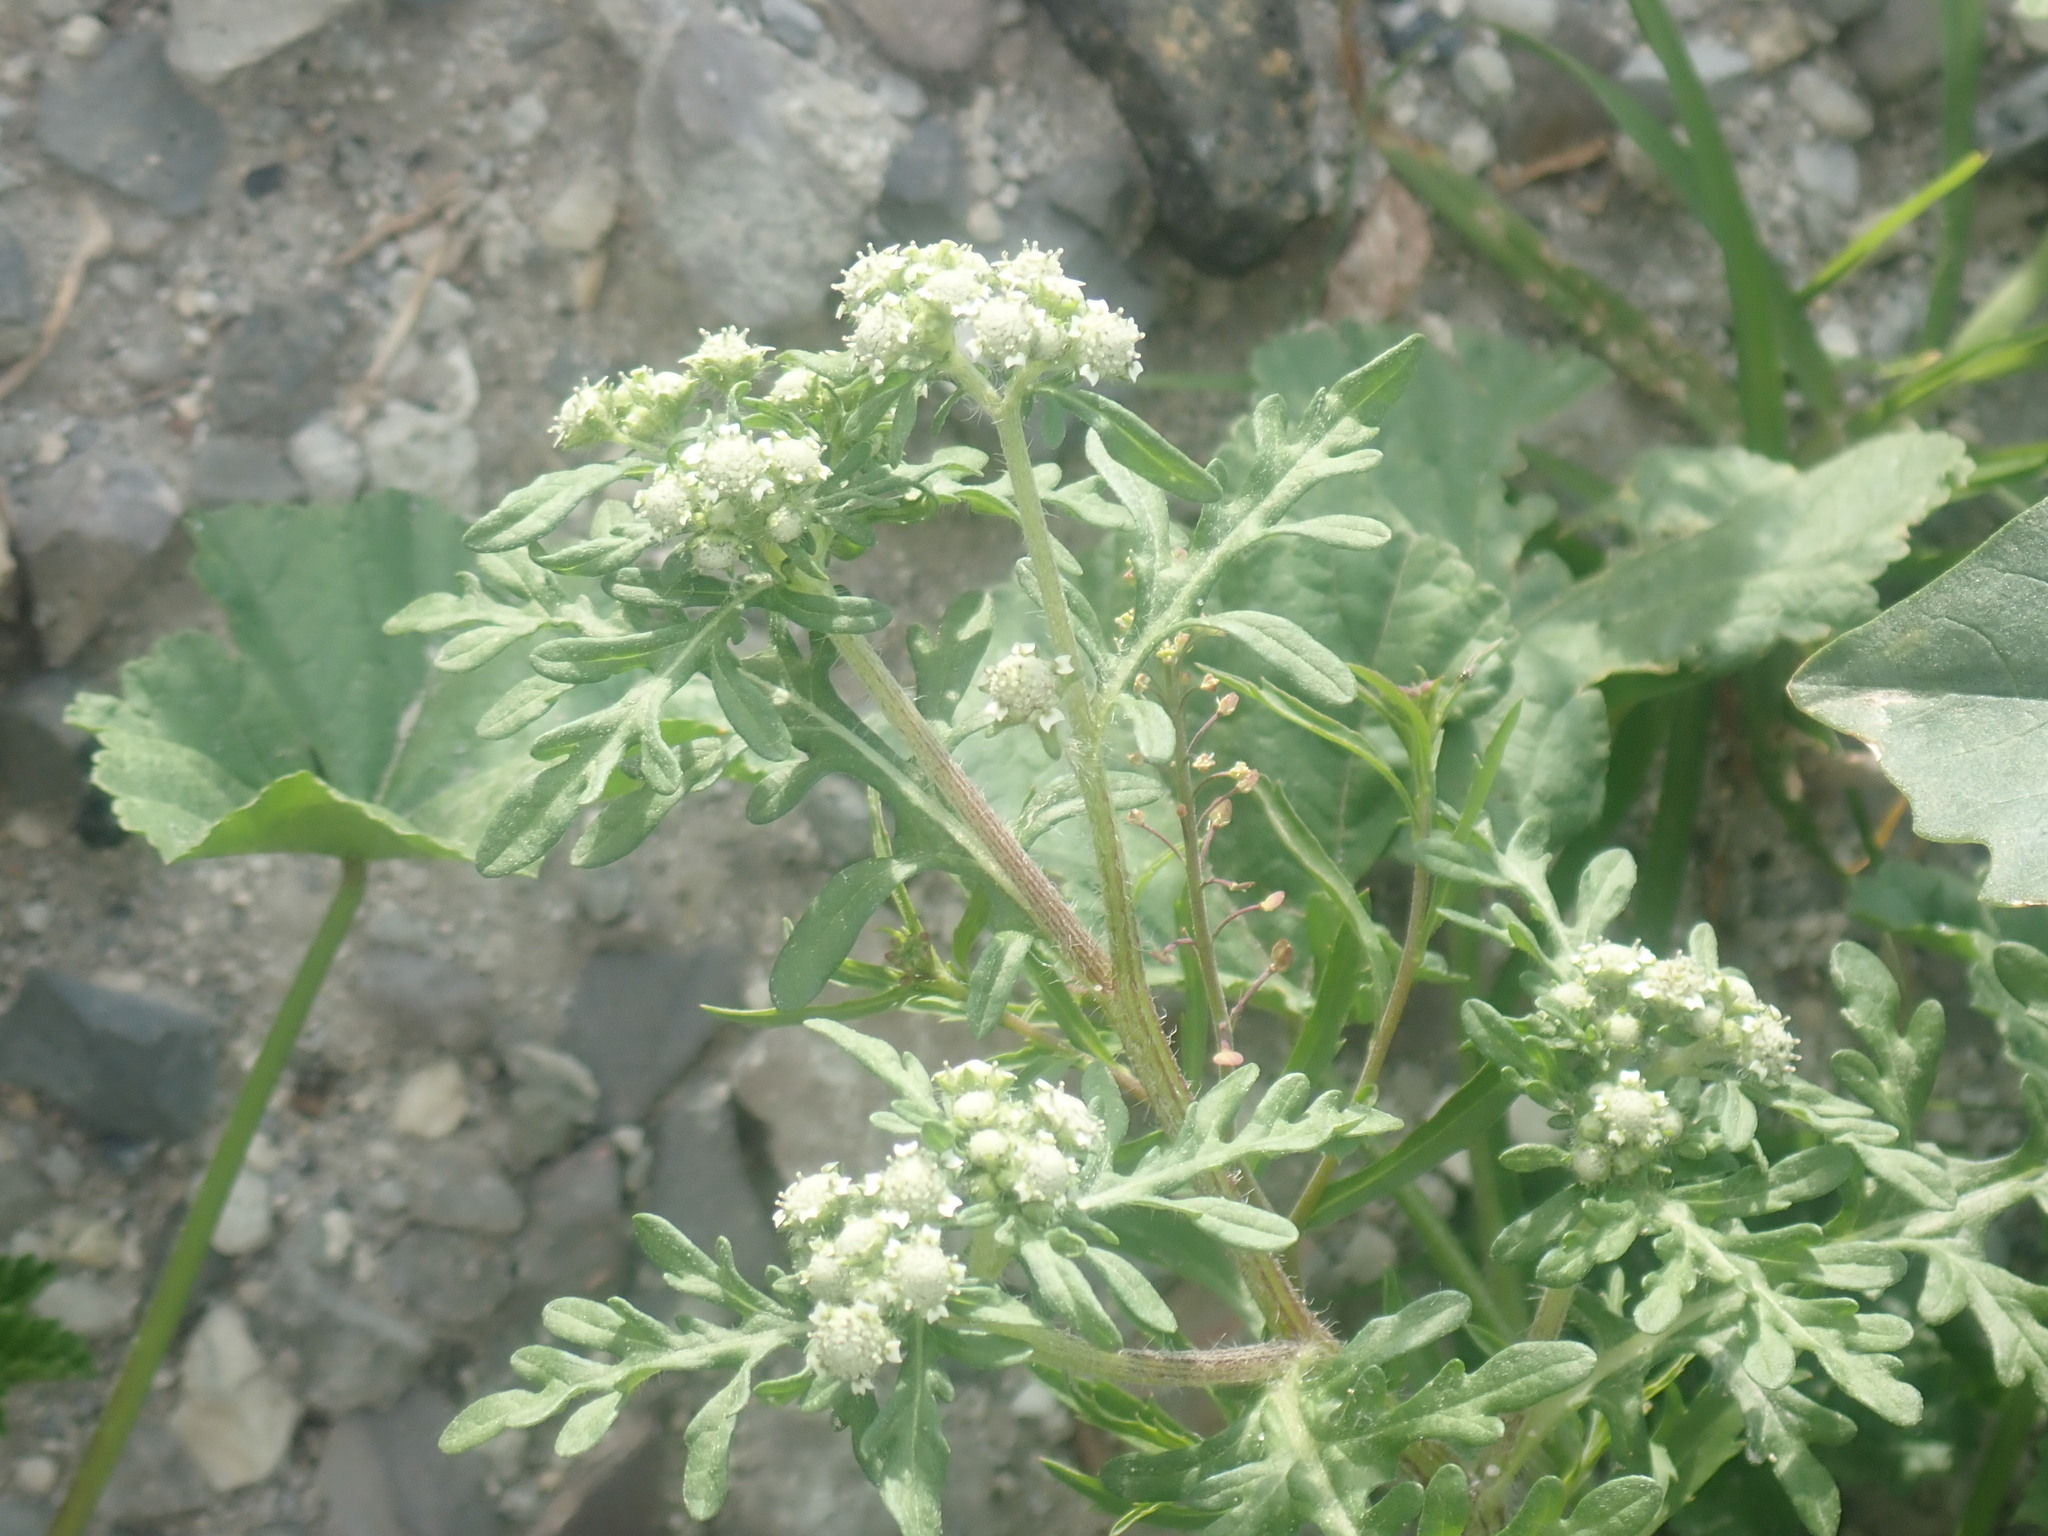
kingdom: Plantae
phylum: Tracheophyta
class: Magnoliopsida
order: Asterales
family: Asteraceae
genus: Parthenium
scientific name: Parthenium bipinnatifidum
